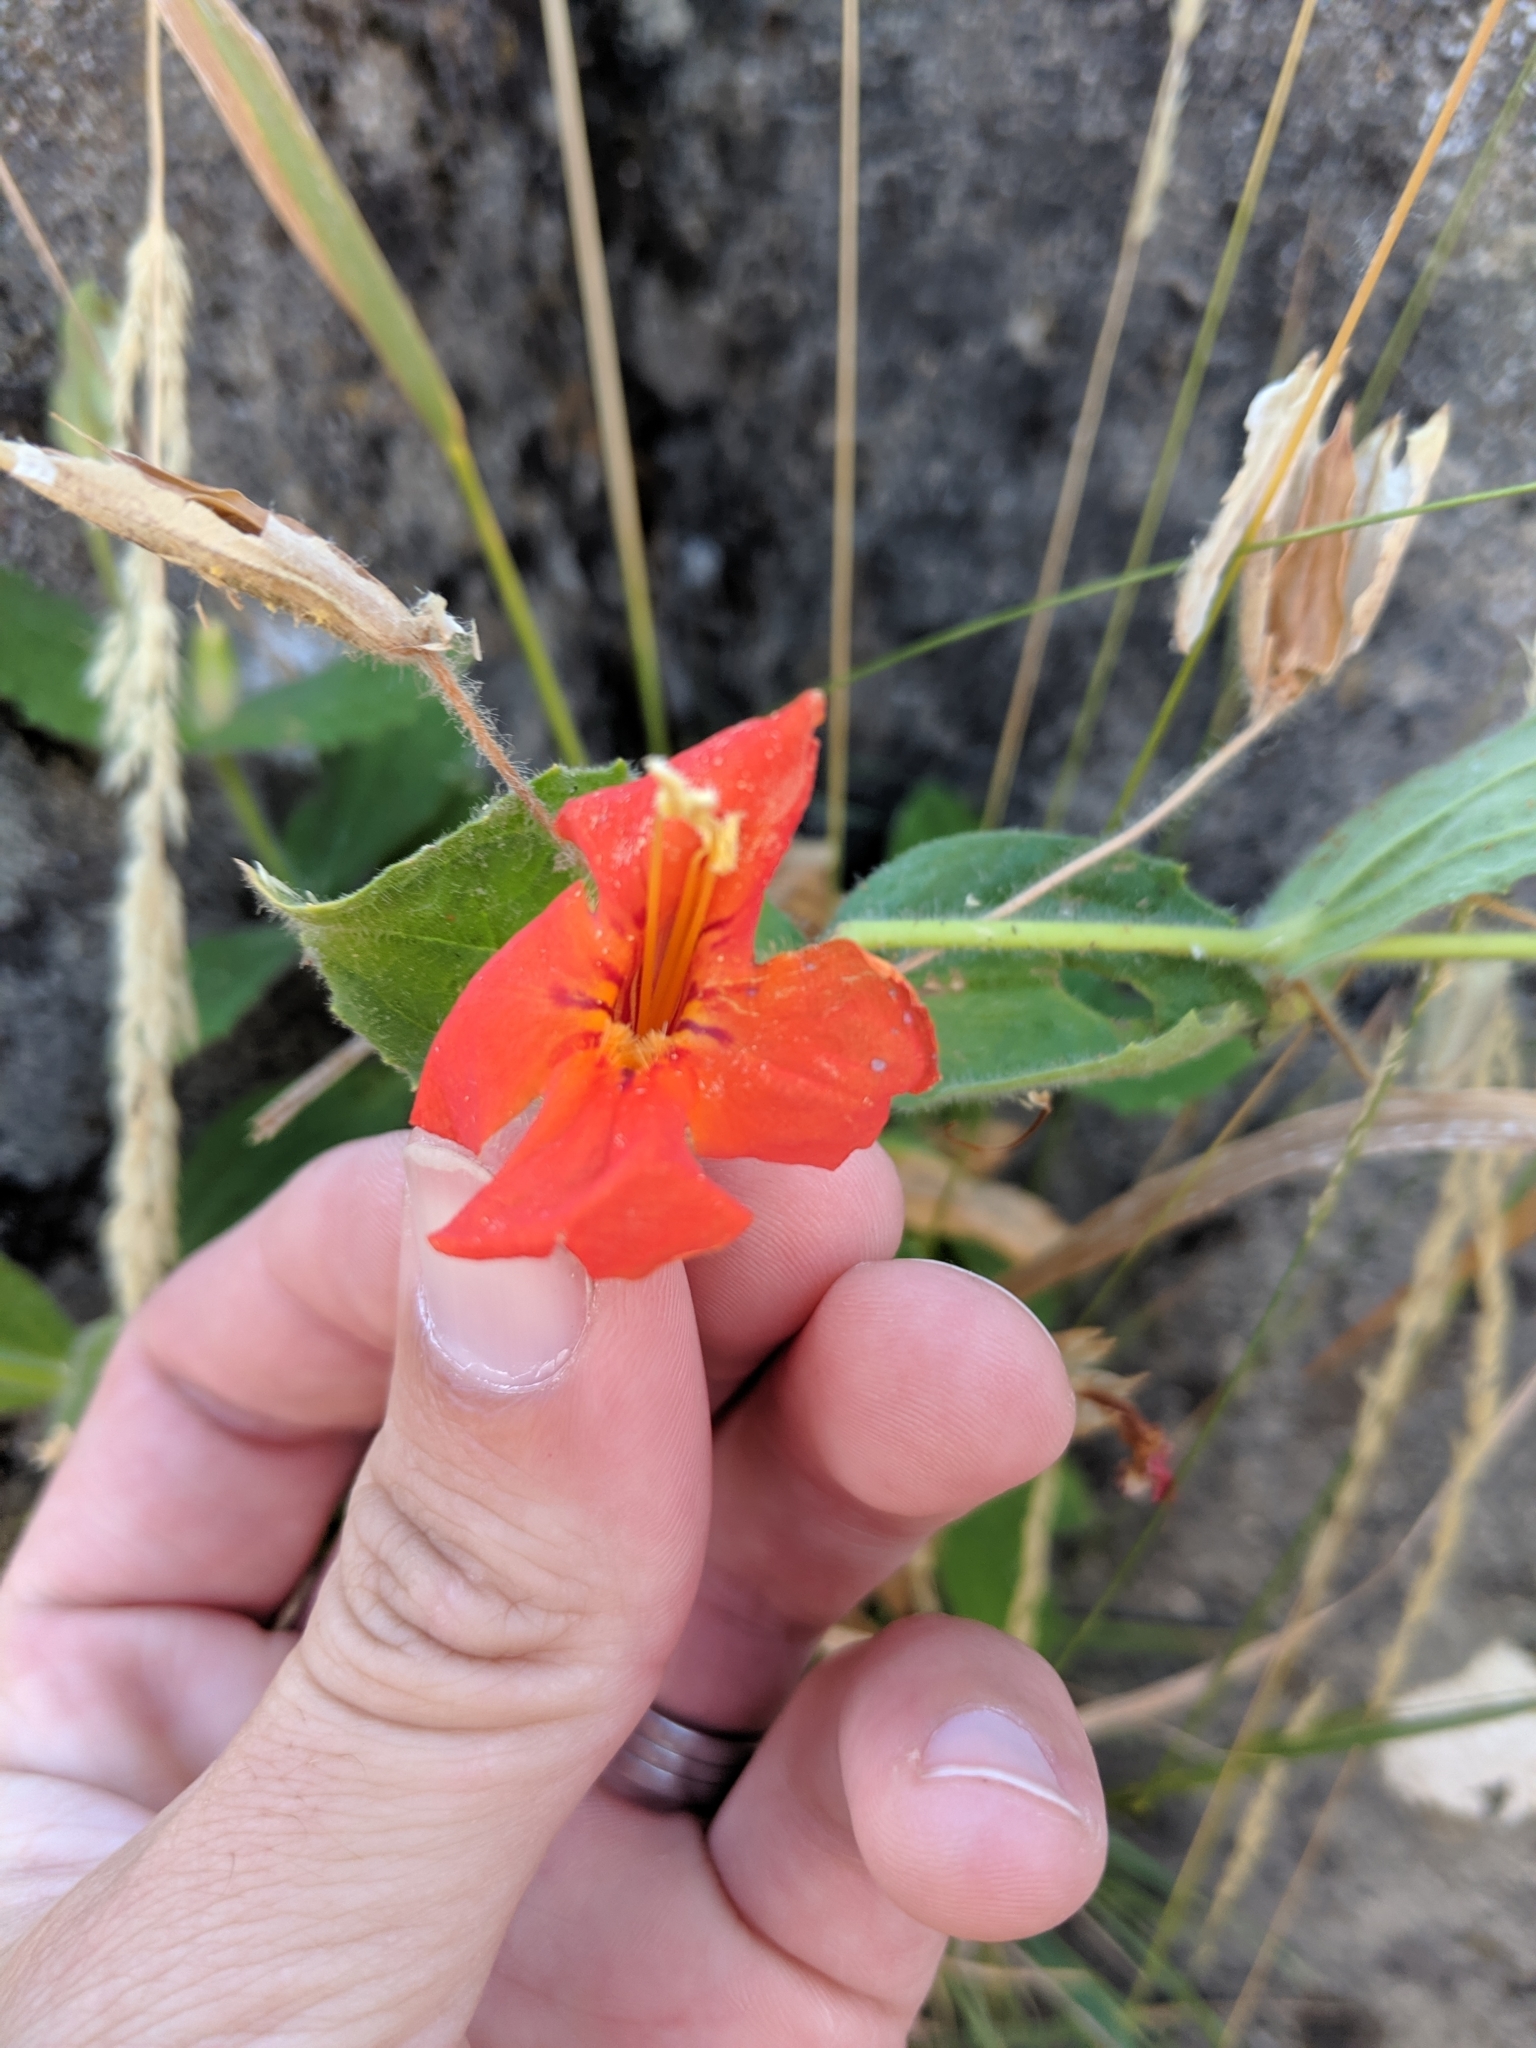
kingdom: Plantae
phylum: Tracheophyta
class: Magnoliopsida
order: Lamiales
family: Phrymaceae
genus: Erythranthe
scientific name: Erythranthe cardinalis
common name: Scarlet monkey-flower
